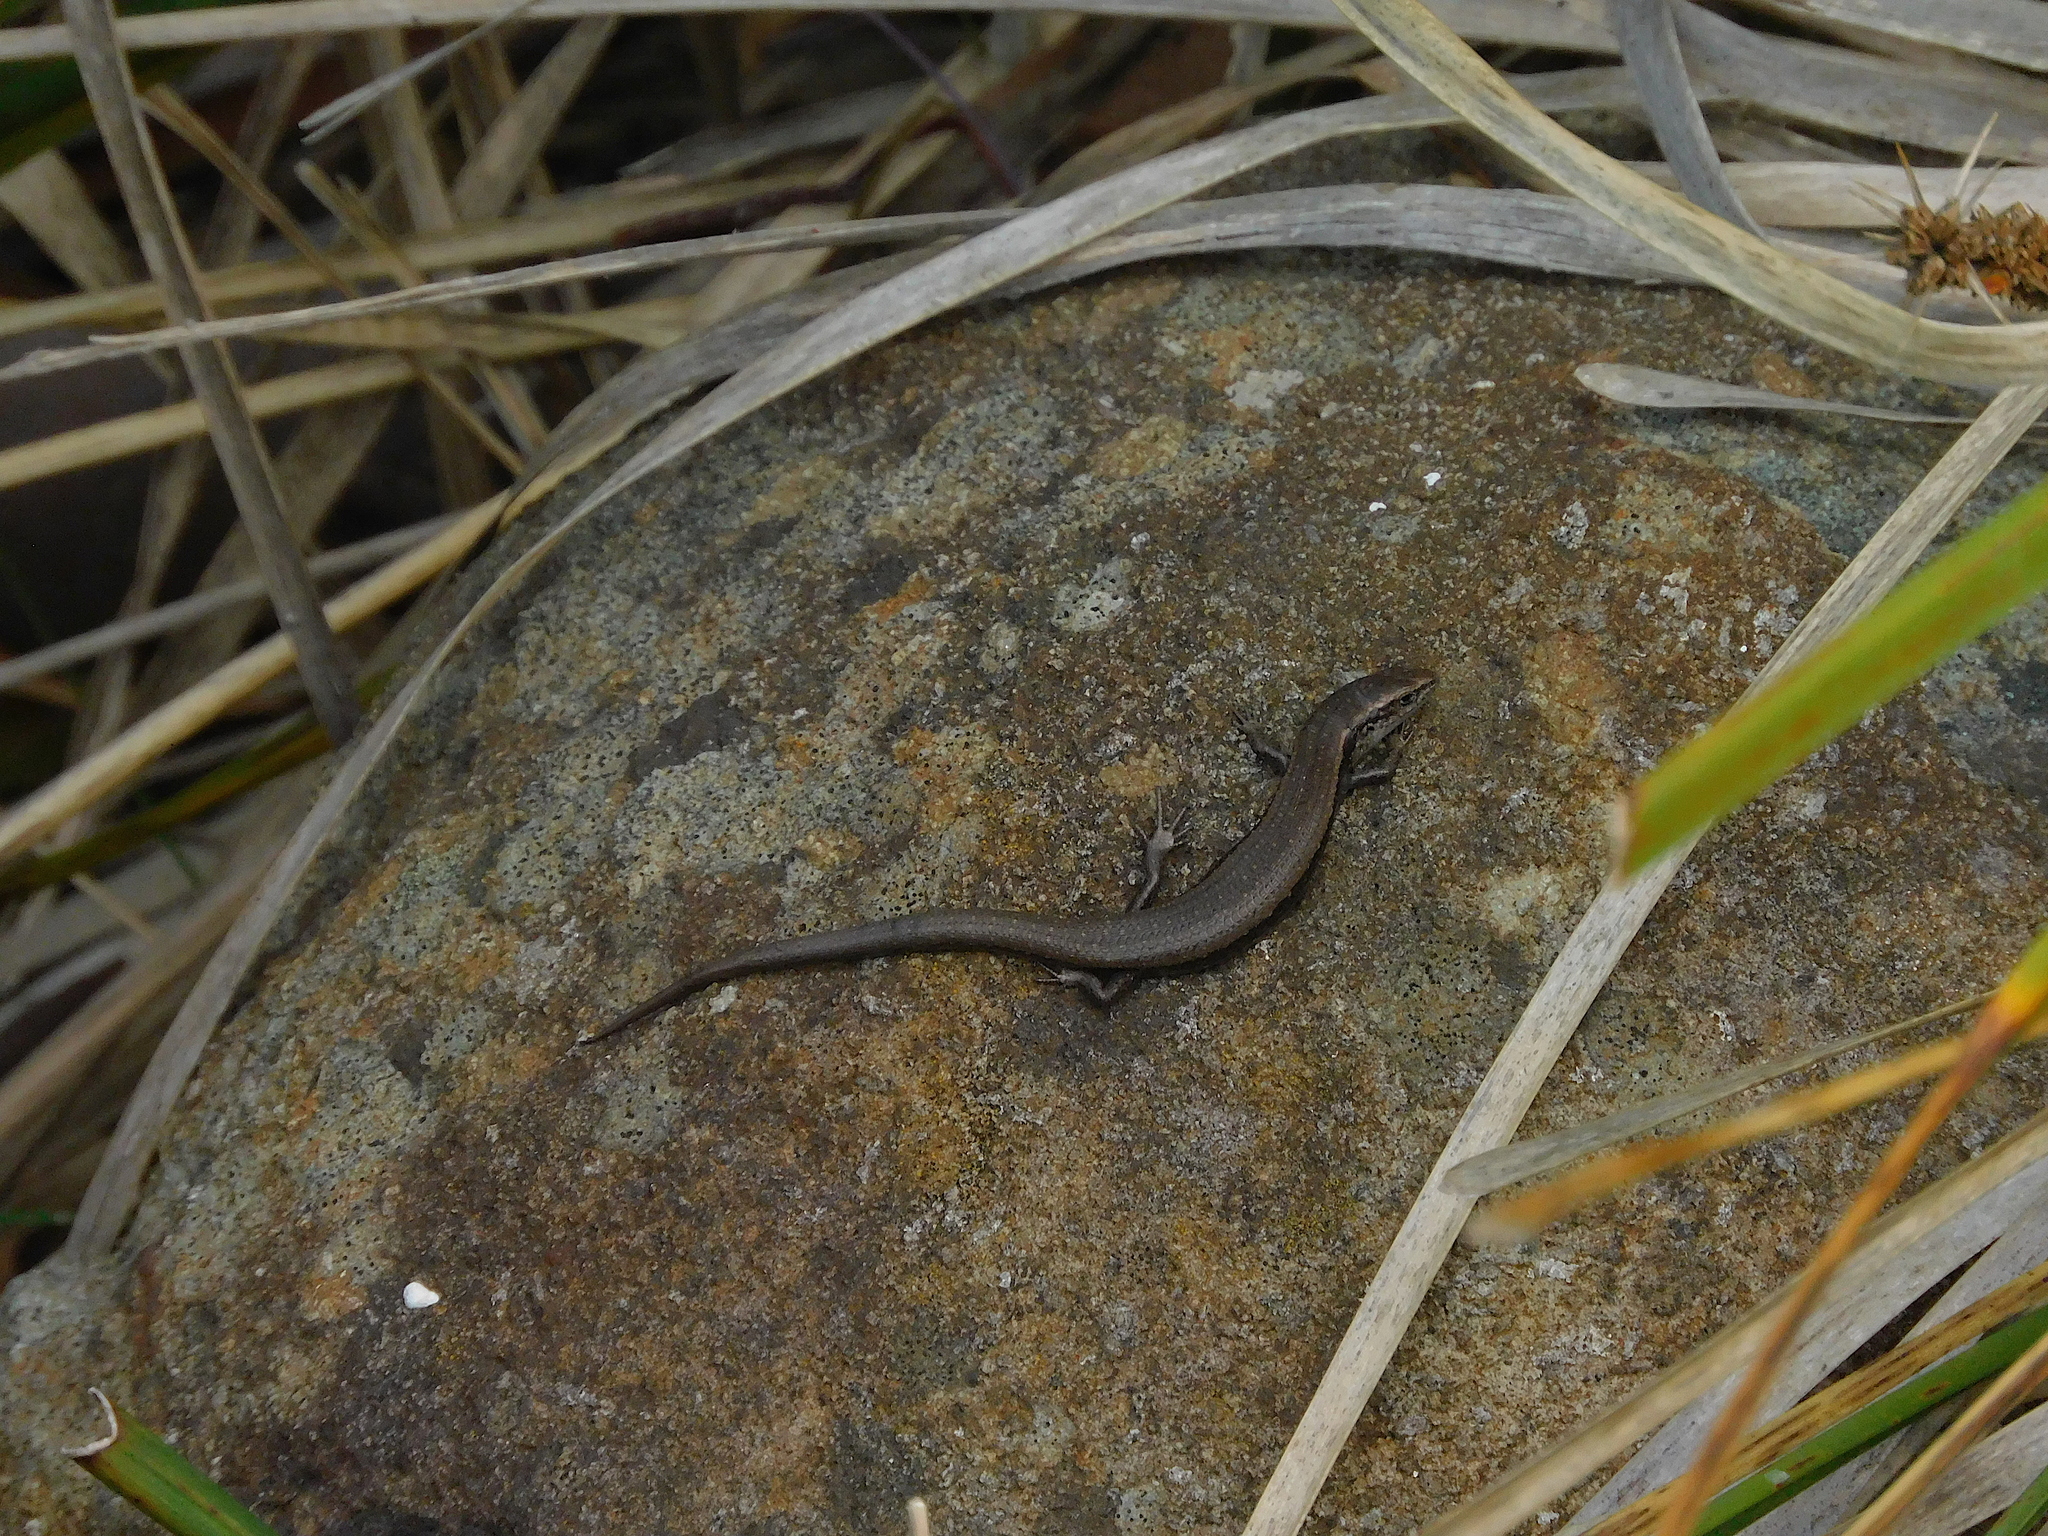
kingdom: Animalia
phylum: Chordata
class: Squamata
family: Scincidae
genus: Carinascincus
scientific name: Carinascincus metallicus
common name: Metallic cool-skink
